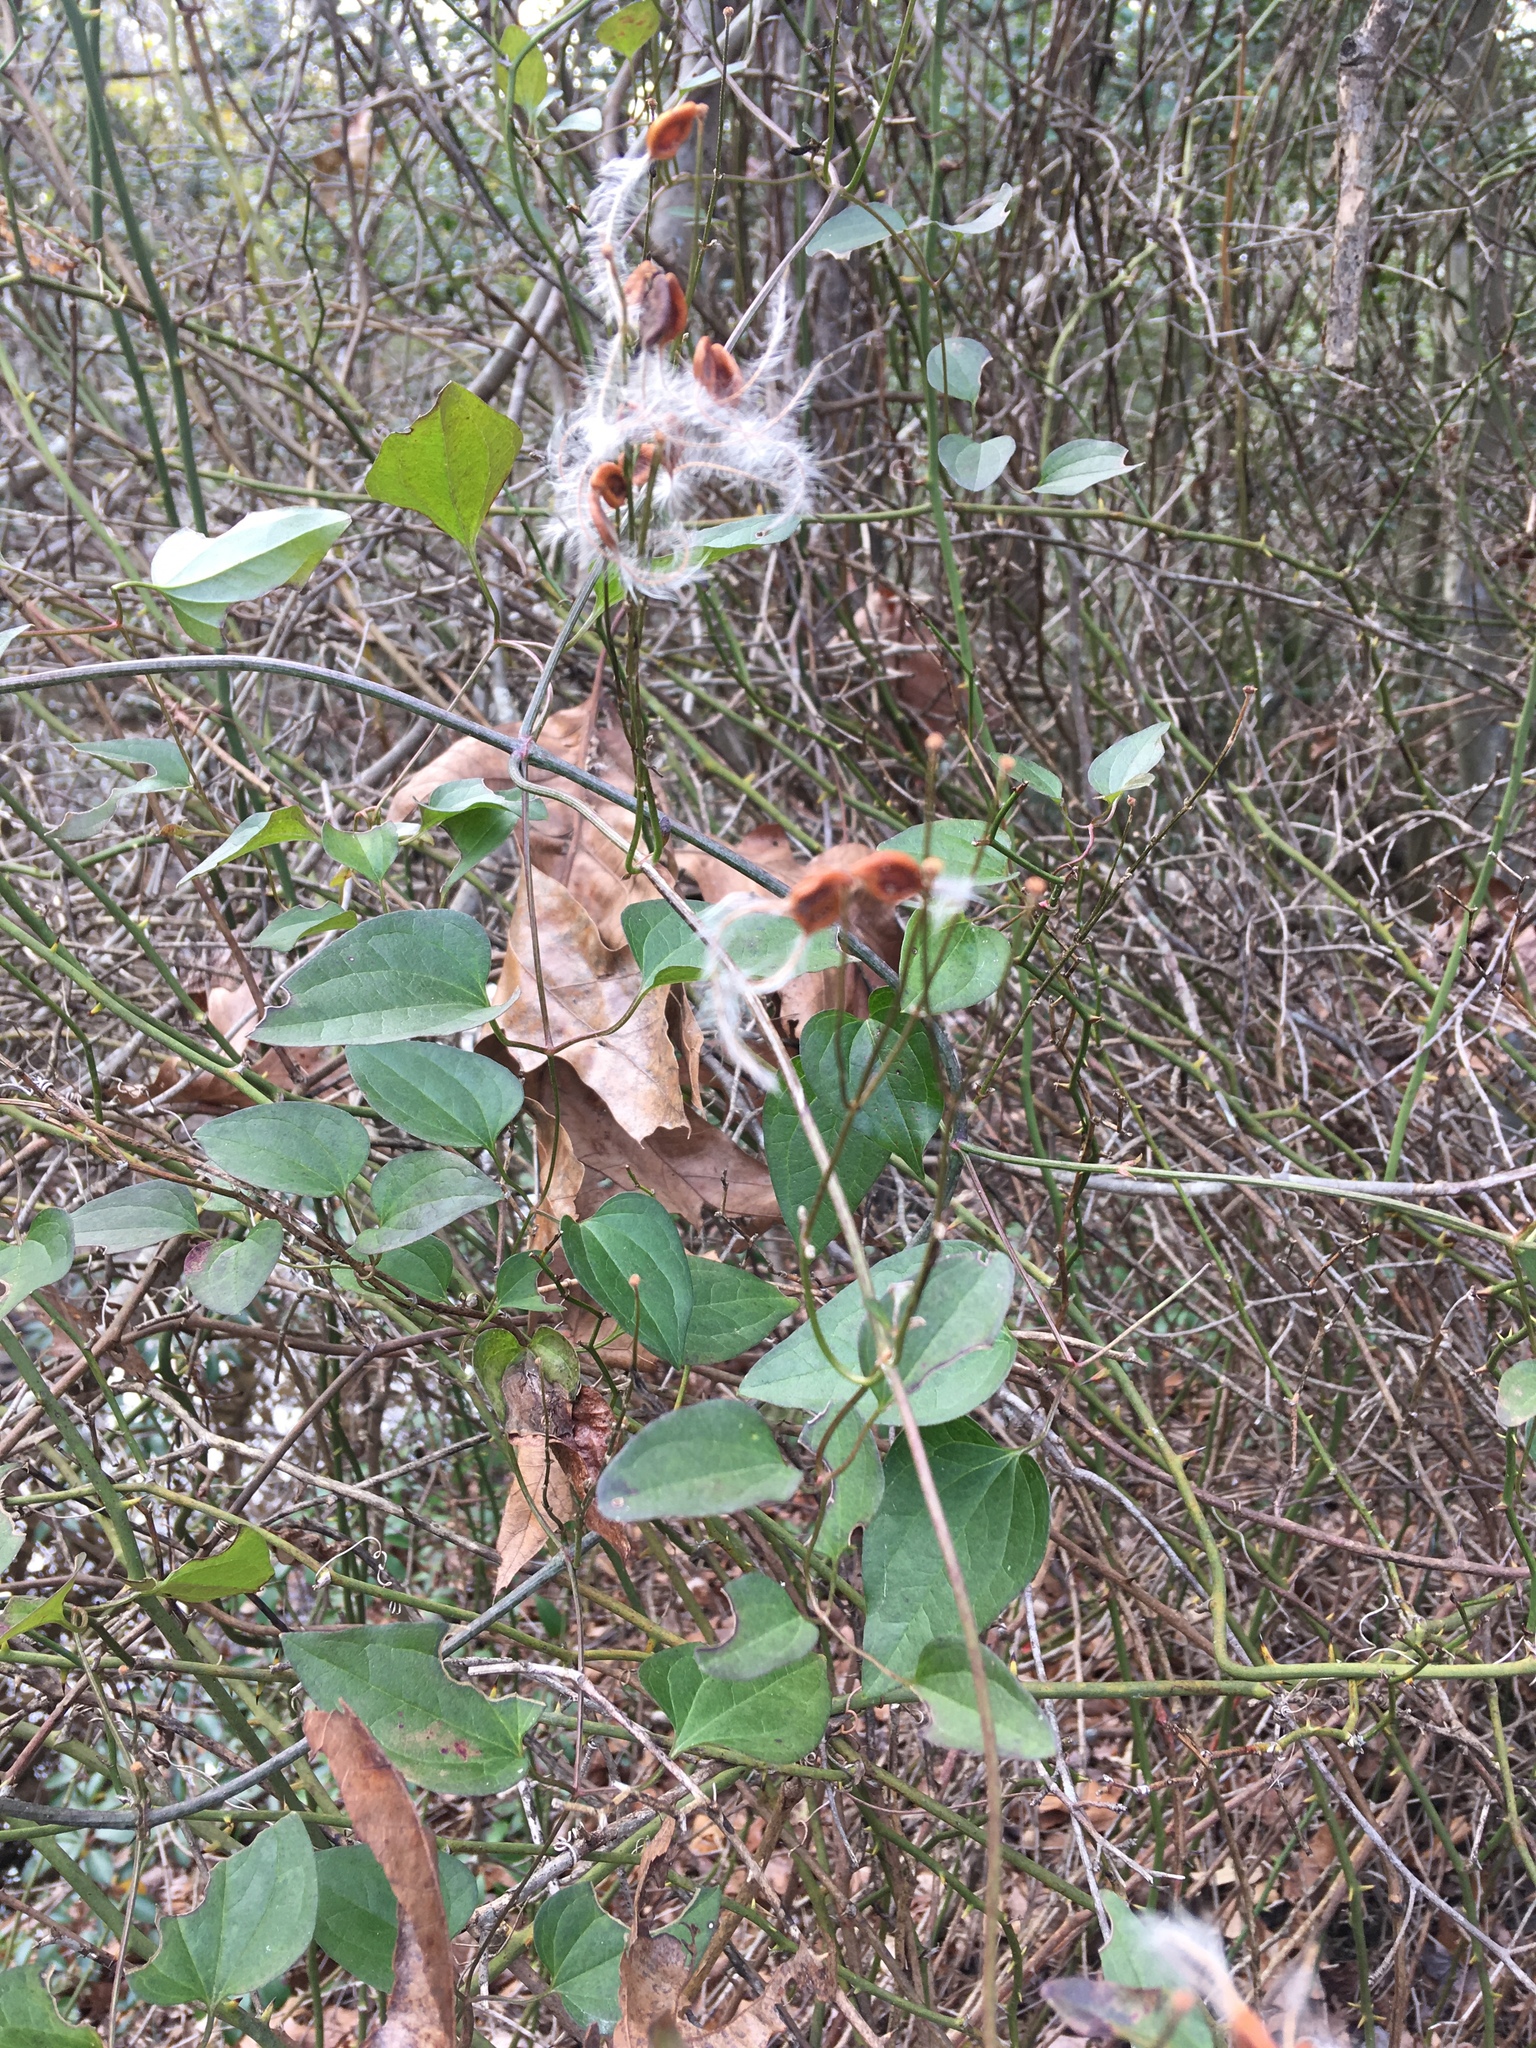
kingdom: Plantae
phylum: Tracheophyta
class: Magnoliopsida
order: Ranunculales
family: Ranunculaceae
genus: Clematis
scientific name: Clematis terniflora
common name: Sweet autumn clematis
